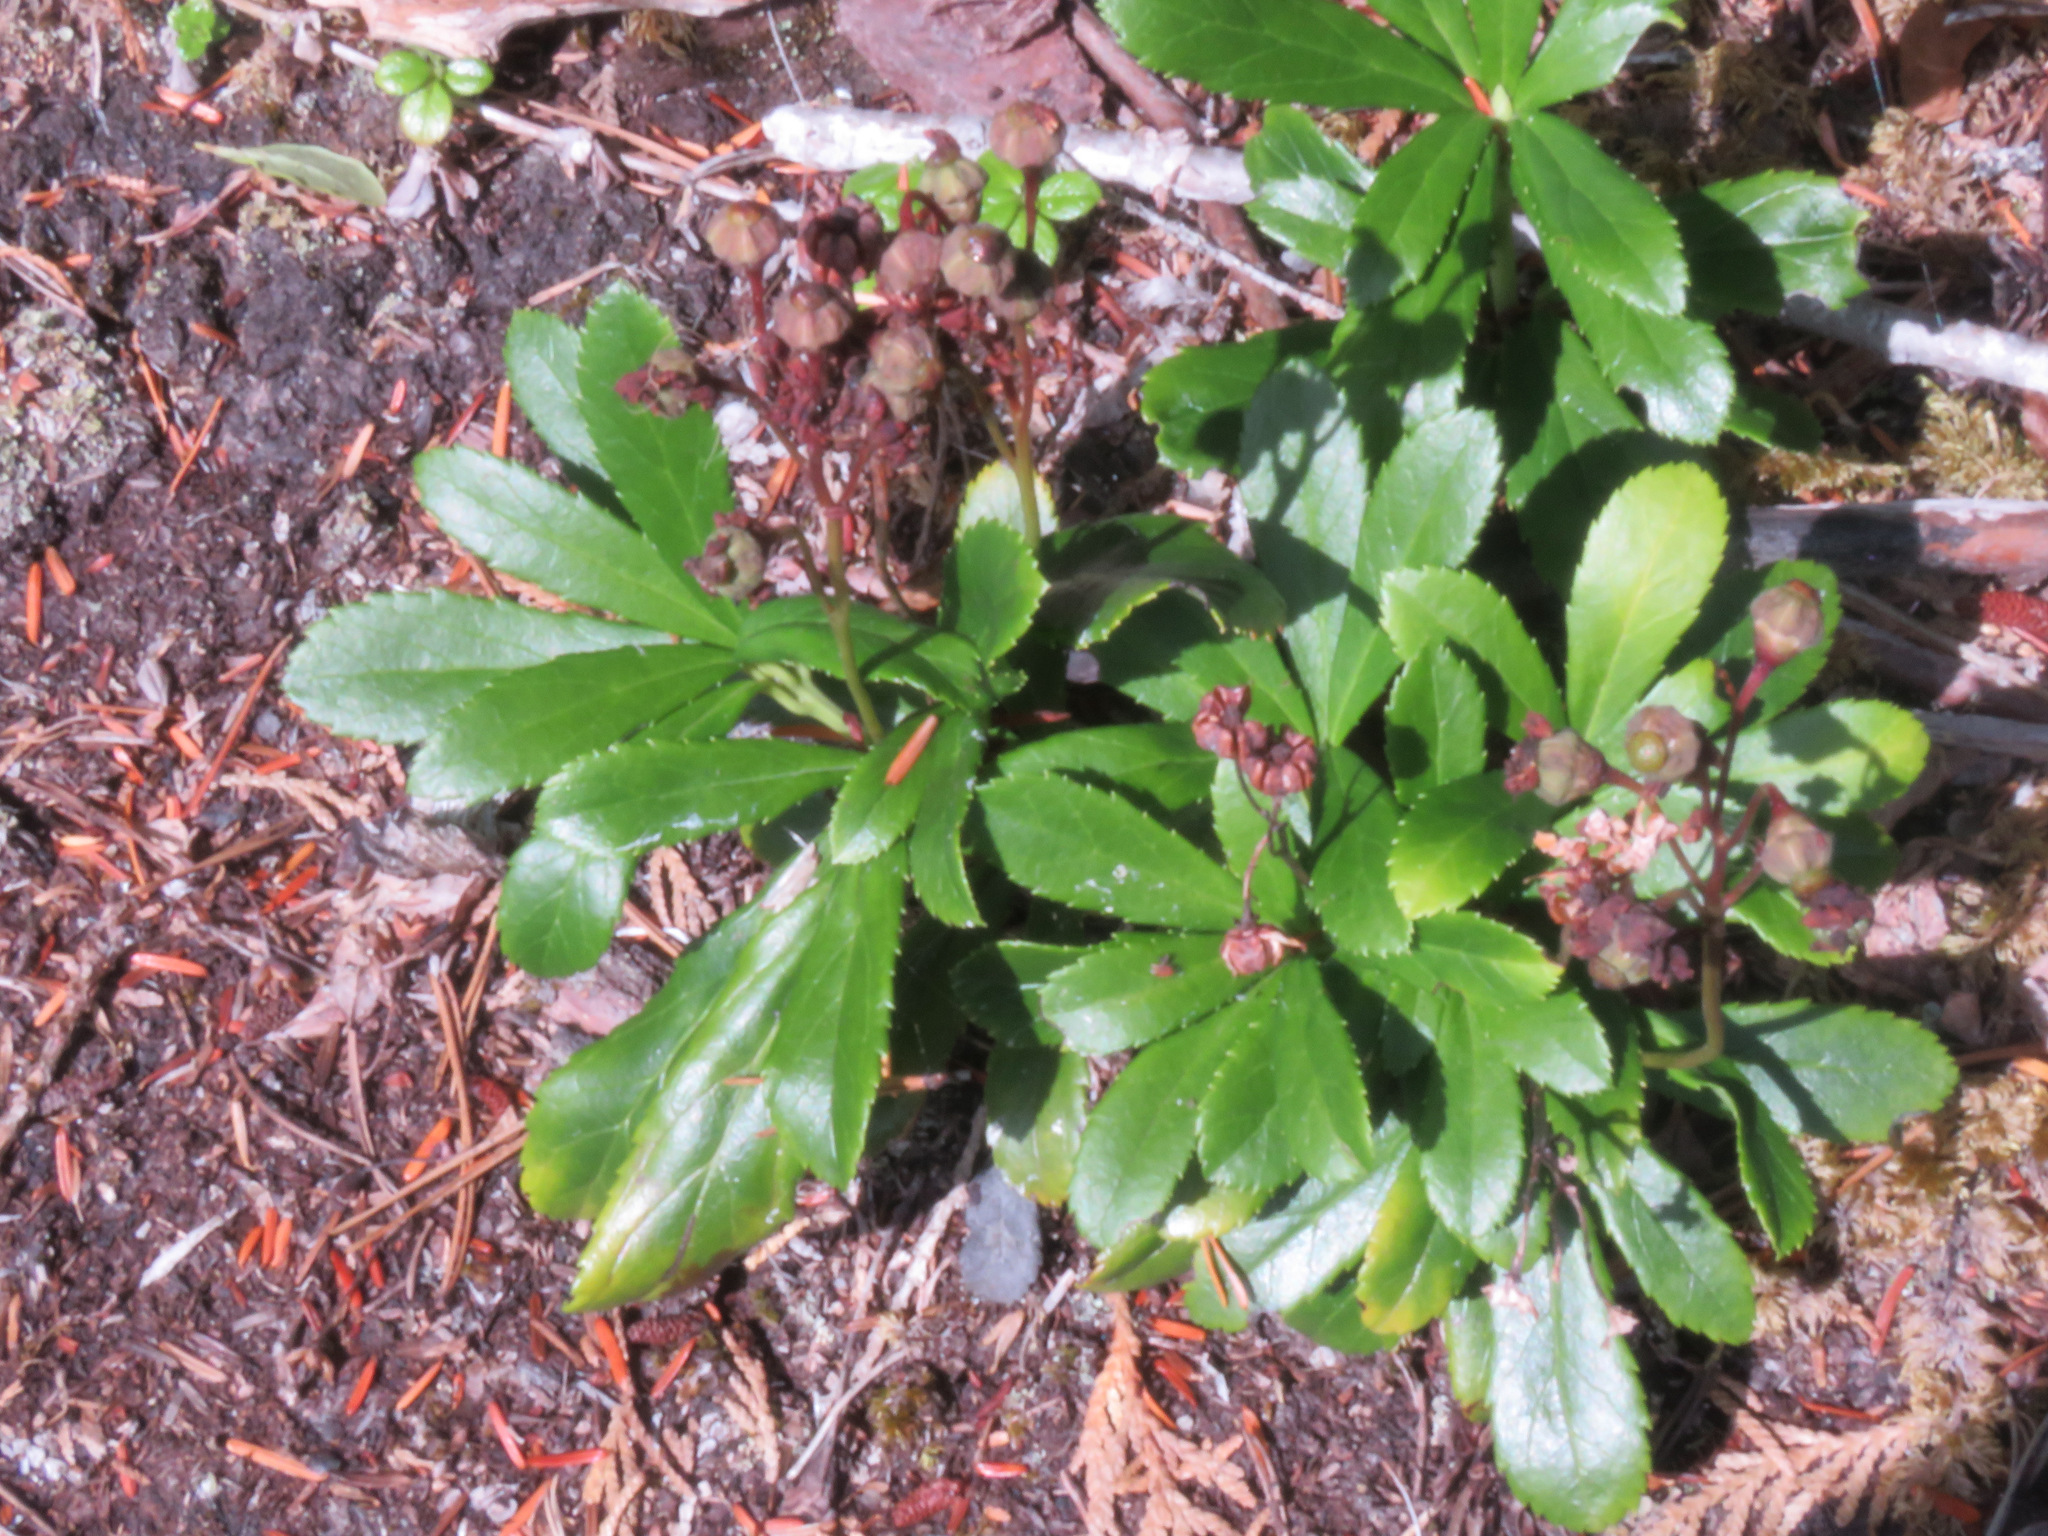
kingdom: Plantae
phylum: Tracheophyta
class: Magnoliopsida
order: Ericales
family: Ericaceae
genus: Chimaphila
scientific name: Chimaphila umbellata
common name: Pipsissewa
